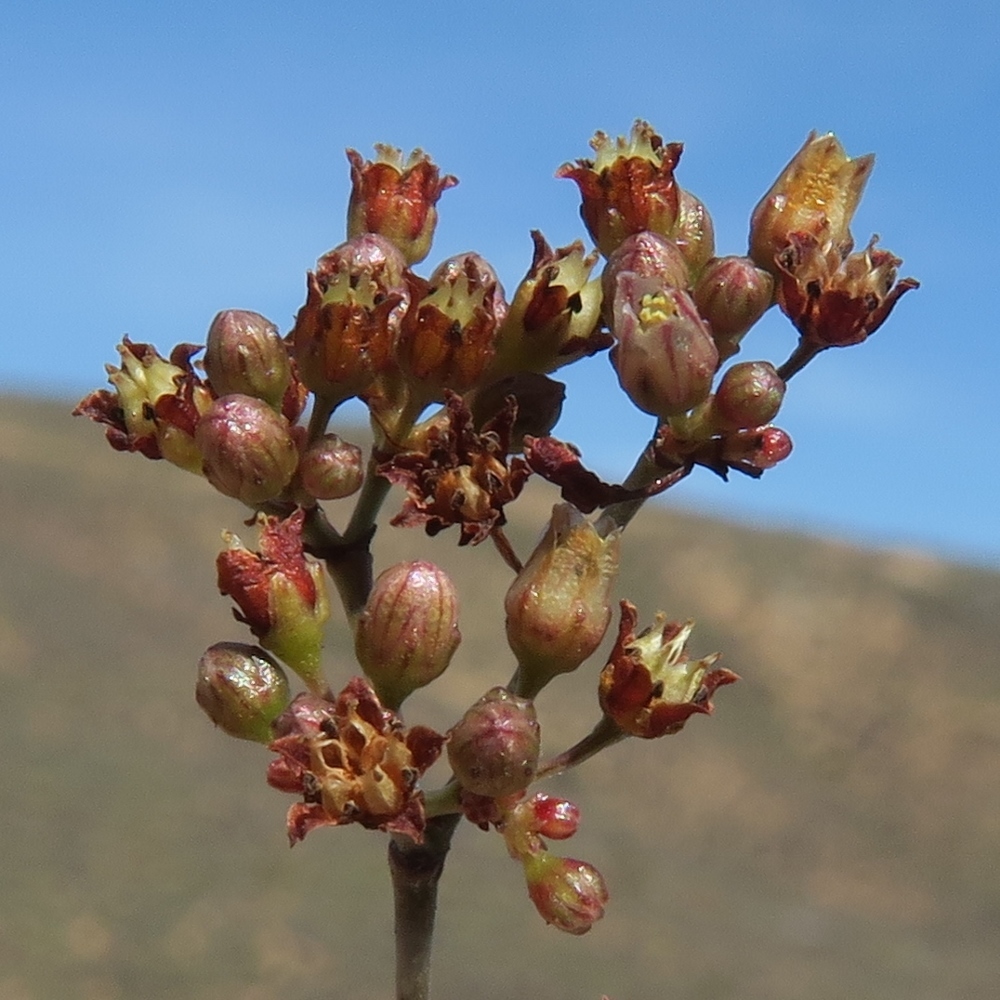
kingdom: Plantae
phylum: Tracheophyta
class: Magnoliopsida
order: Saxifragales
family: Crassulaceae
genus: Crassula
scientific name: Crassula tetragona
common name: Pygmyweed
